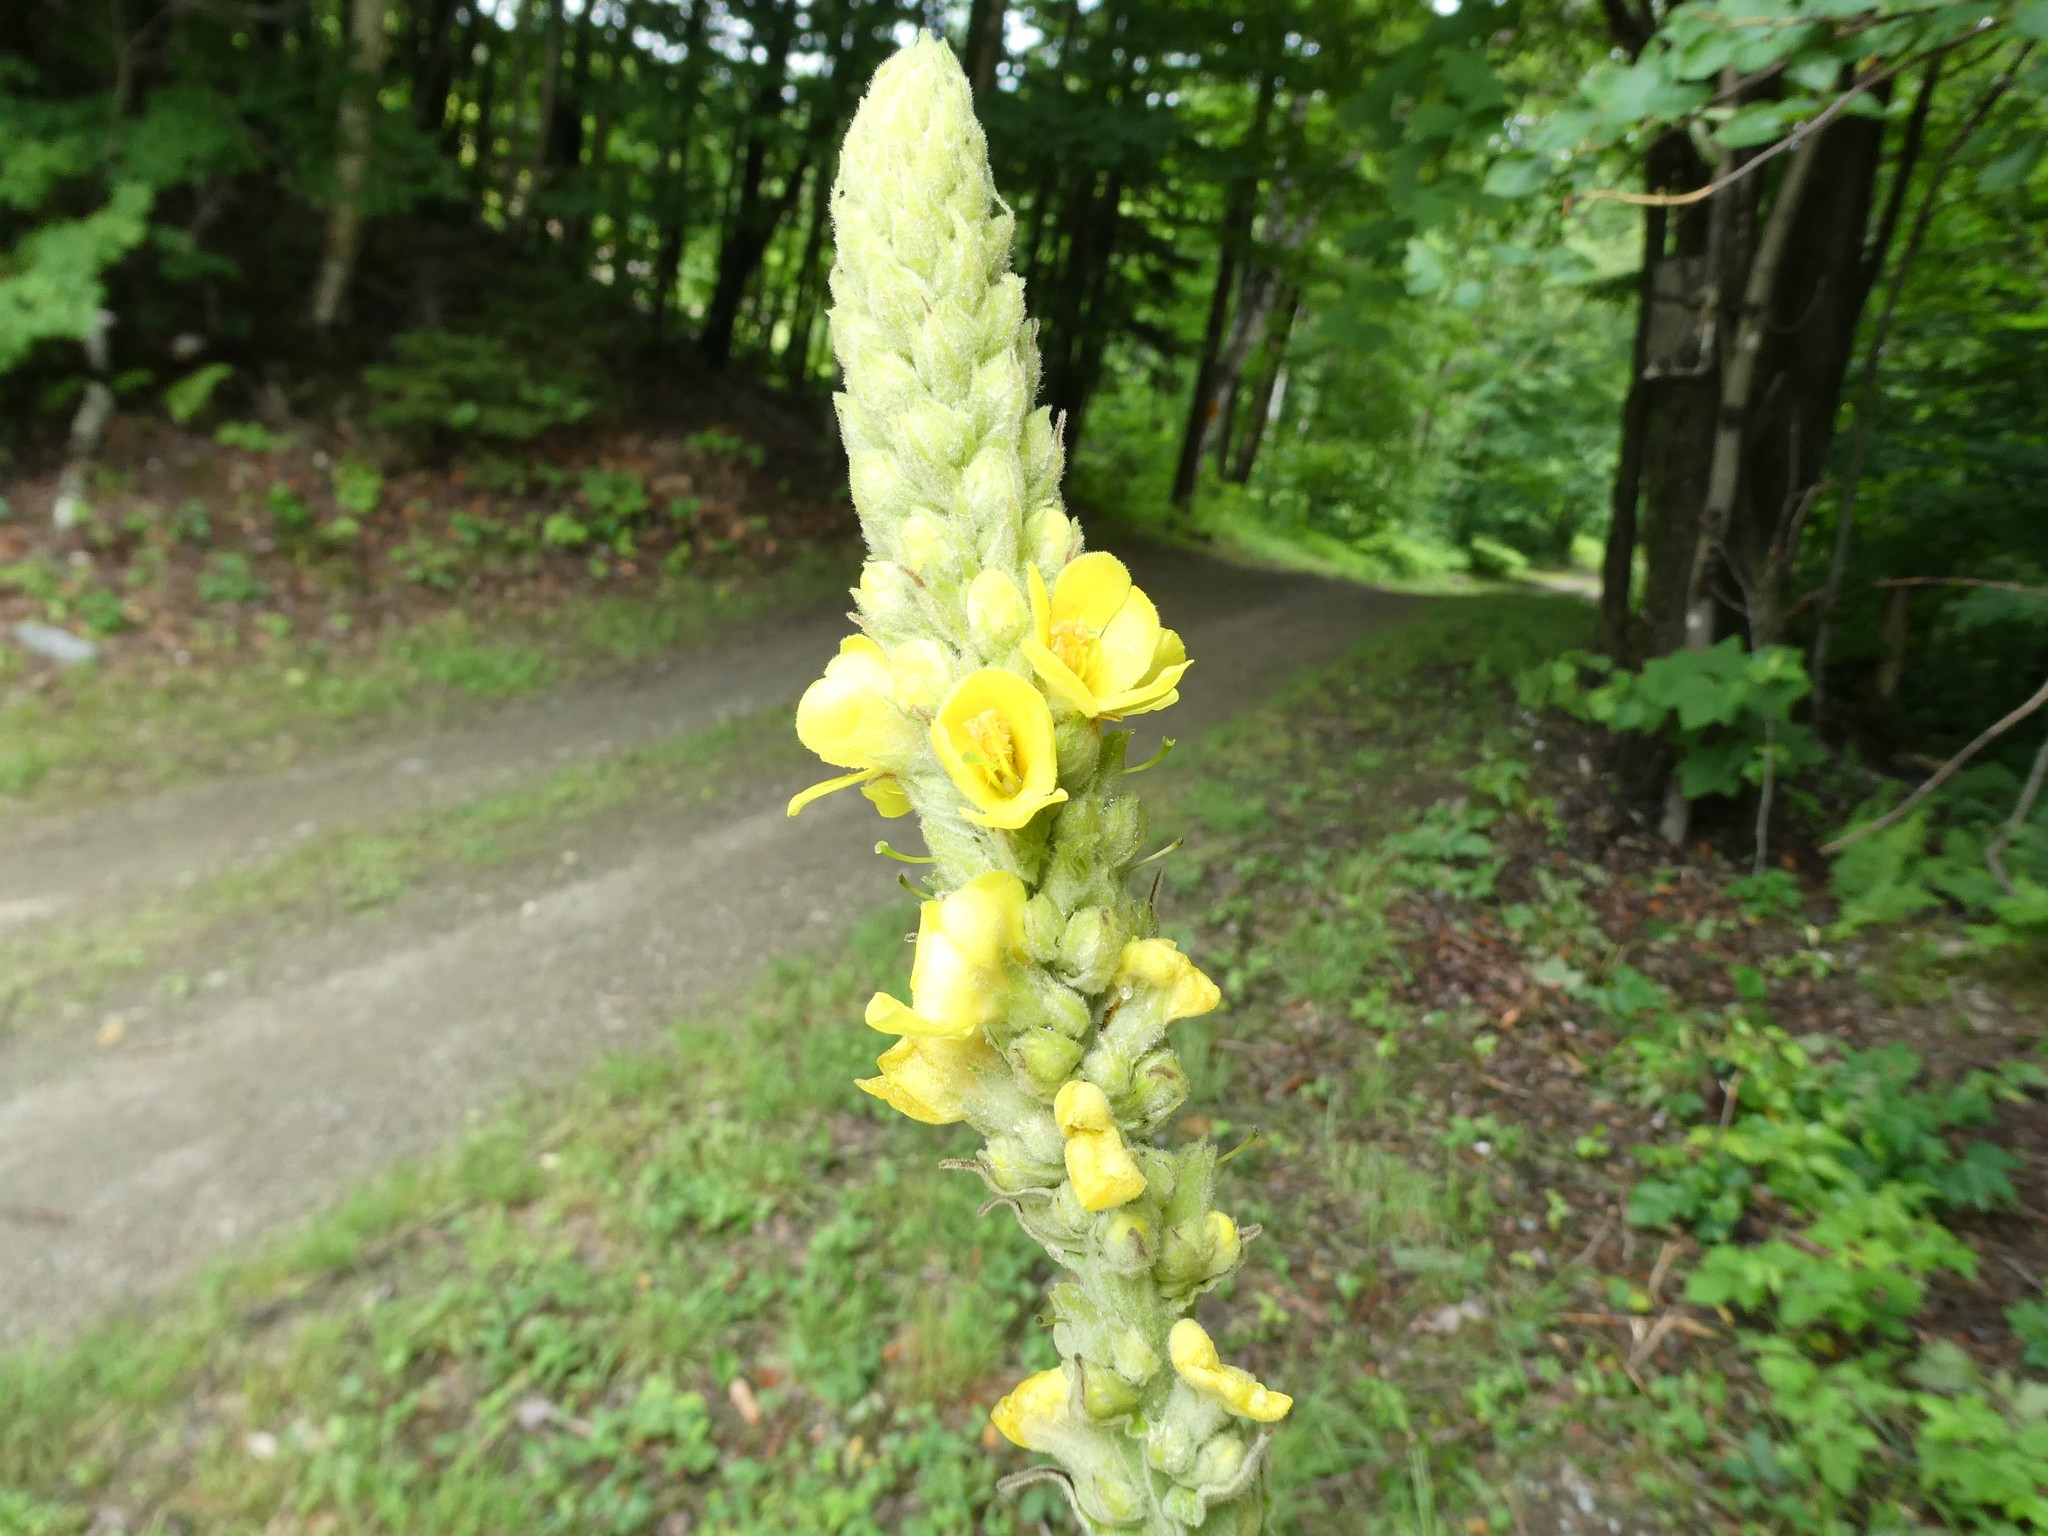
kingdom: Plantae
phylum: Tracheophyta
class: Magnoliopsida
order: Lamiales
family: Scrophulariaceae
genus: Verbascum
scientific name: Verbascum thapsus
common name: Common mullein
